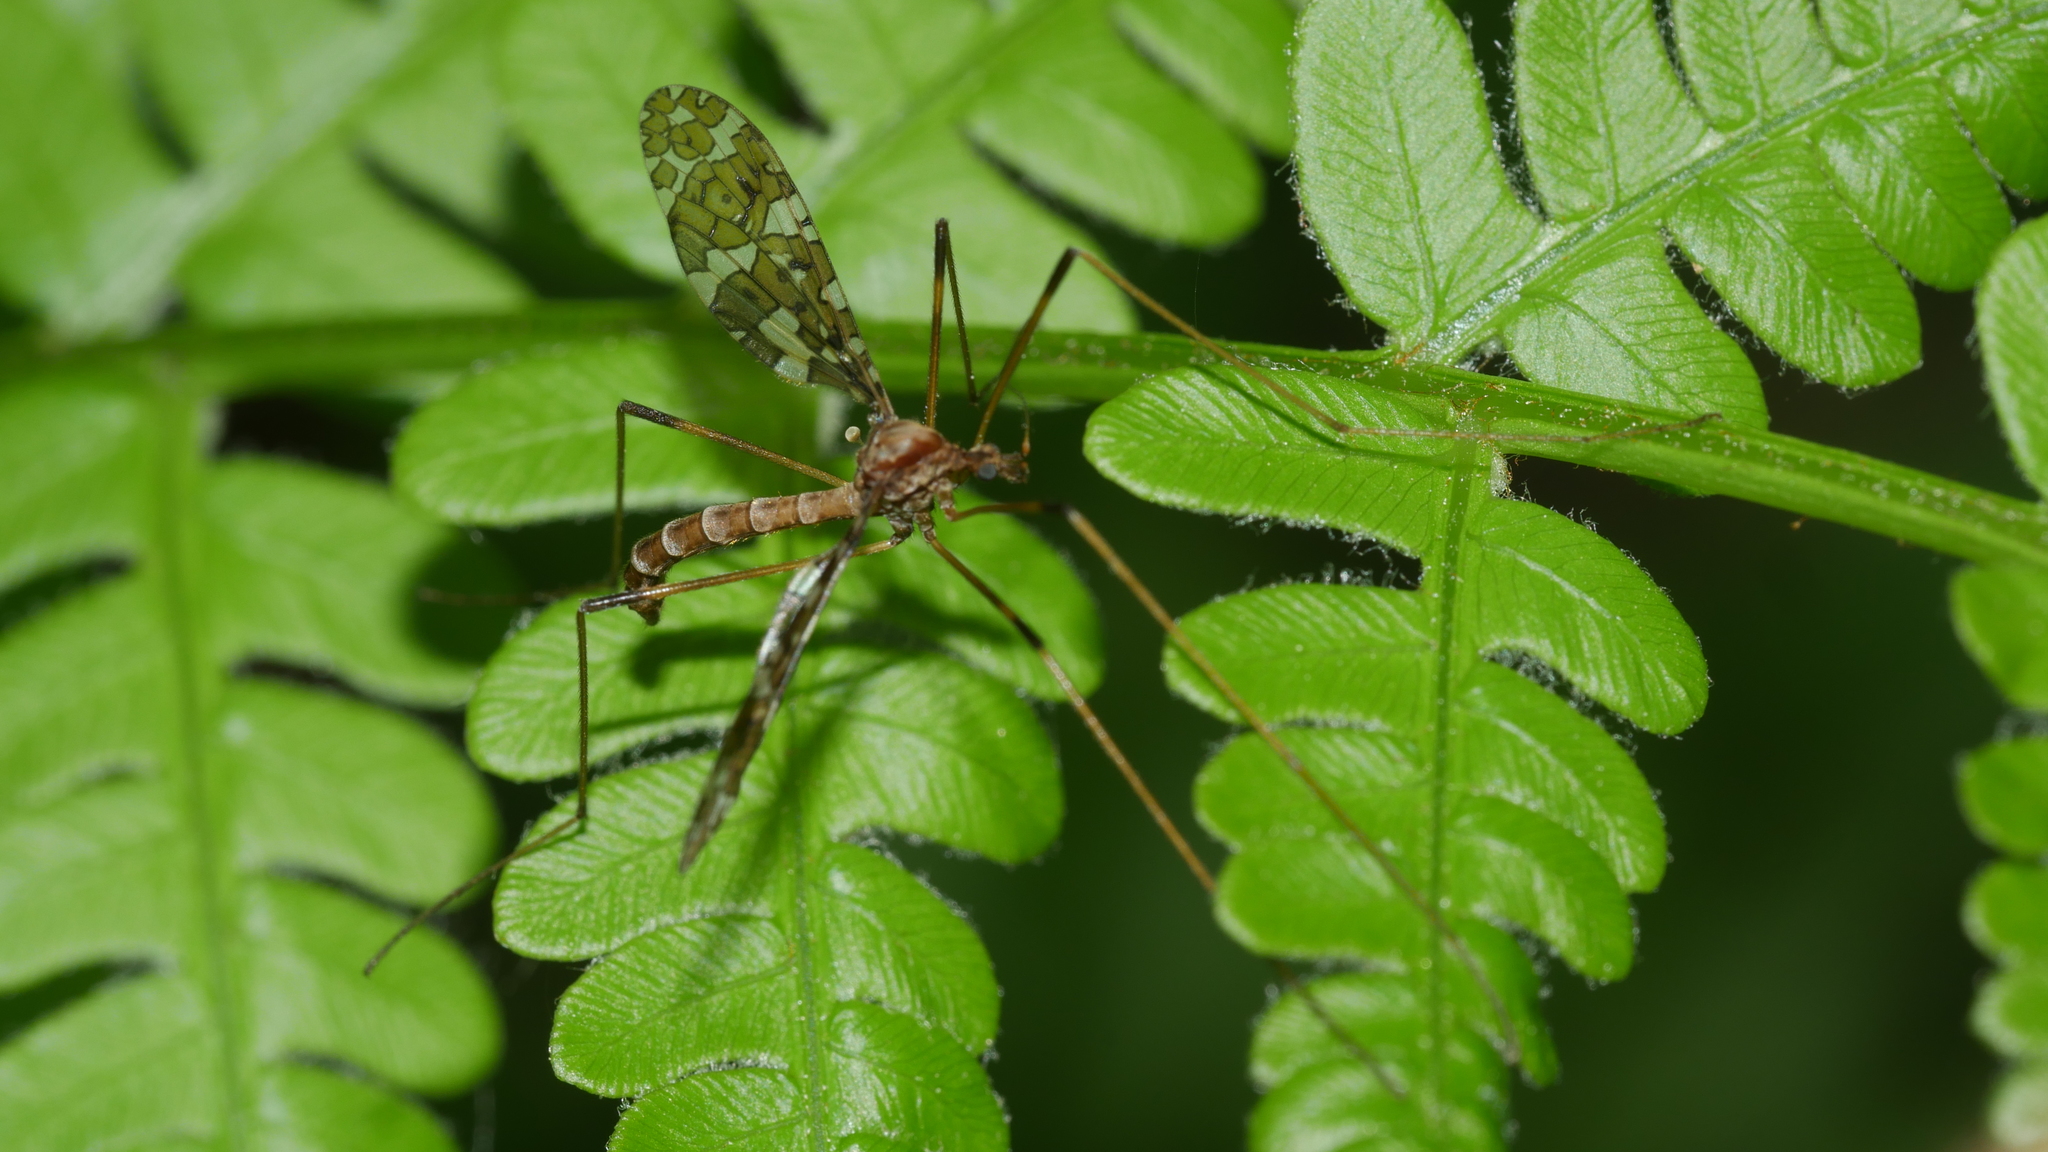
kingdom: Animalia
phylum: Arthropoda
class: Insecta
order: Diptera
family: Limoniidae
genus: Epiphragma
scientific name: Epiphragma fasciapenne
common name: Band-winged crane fly
